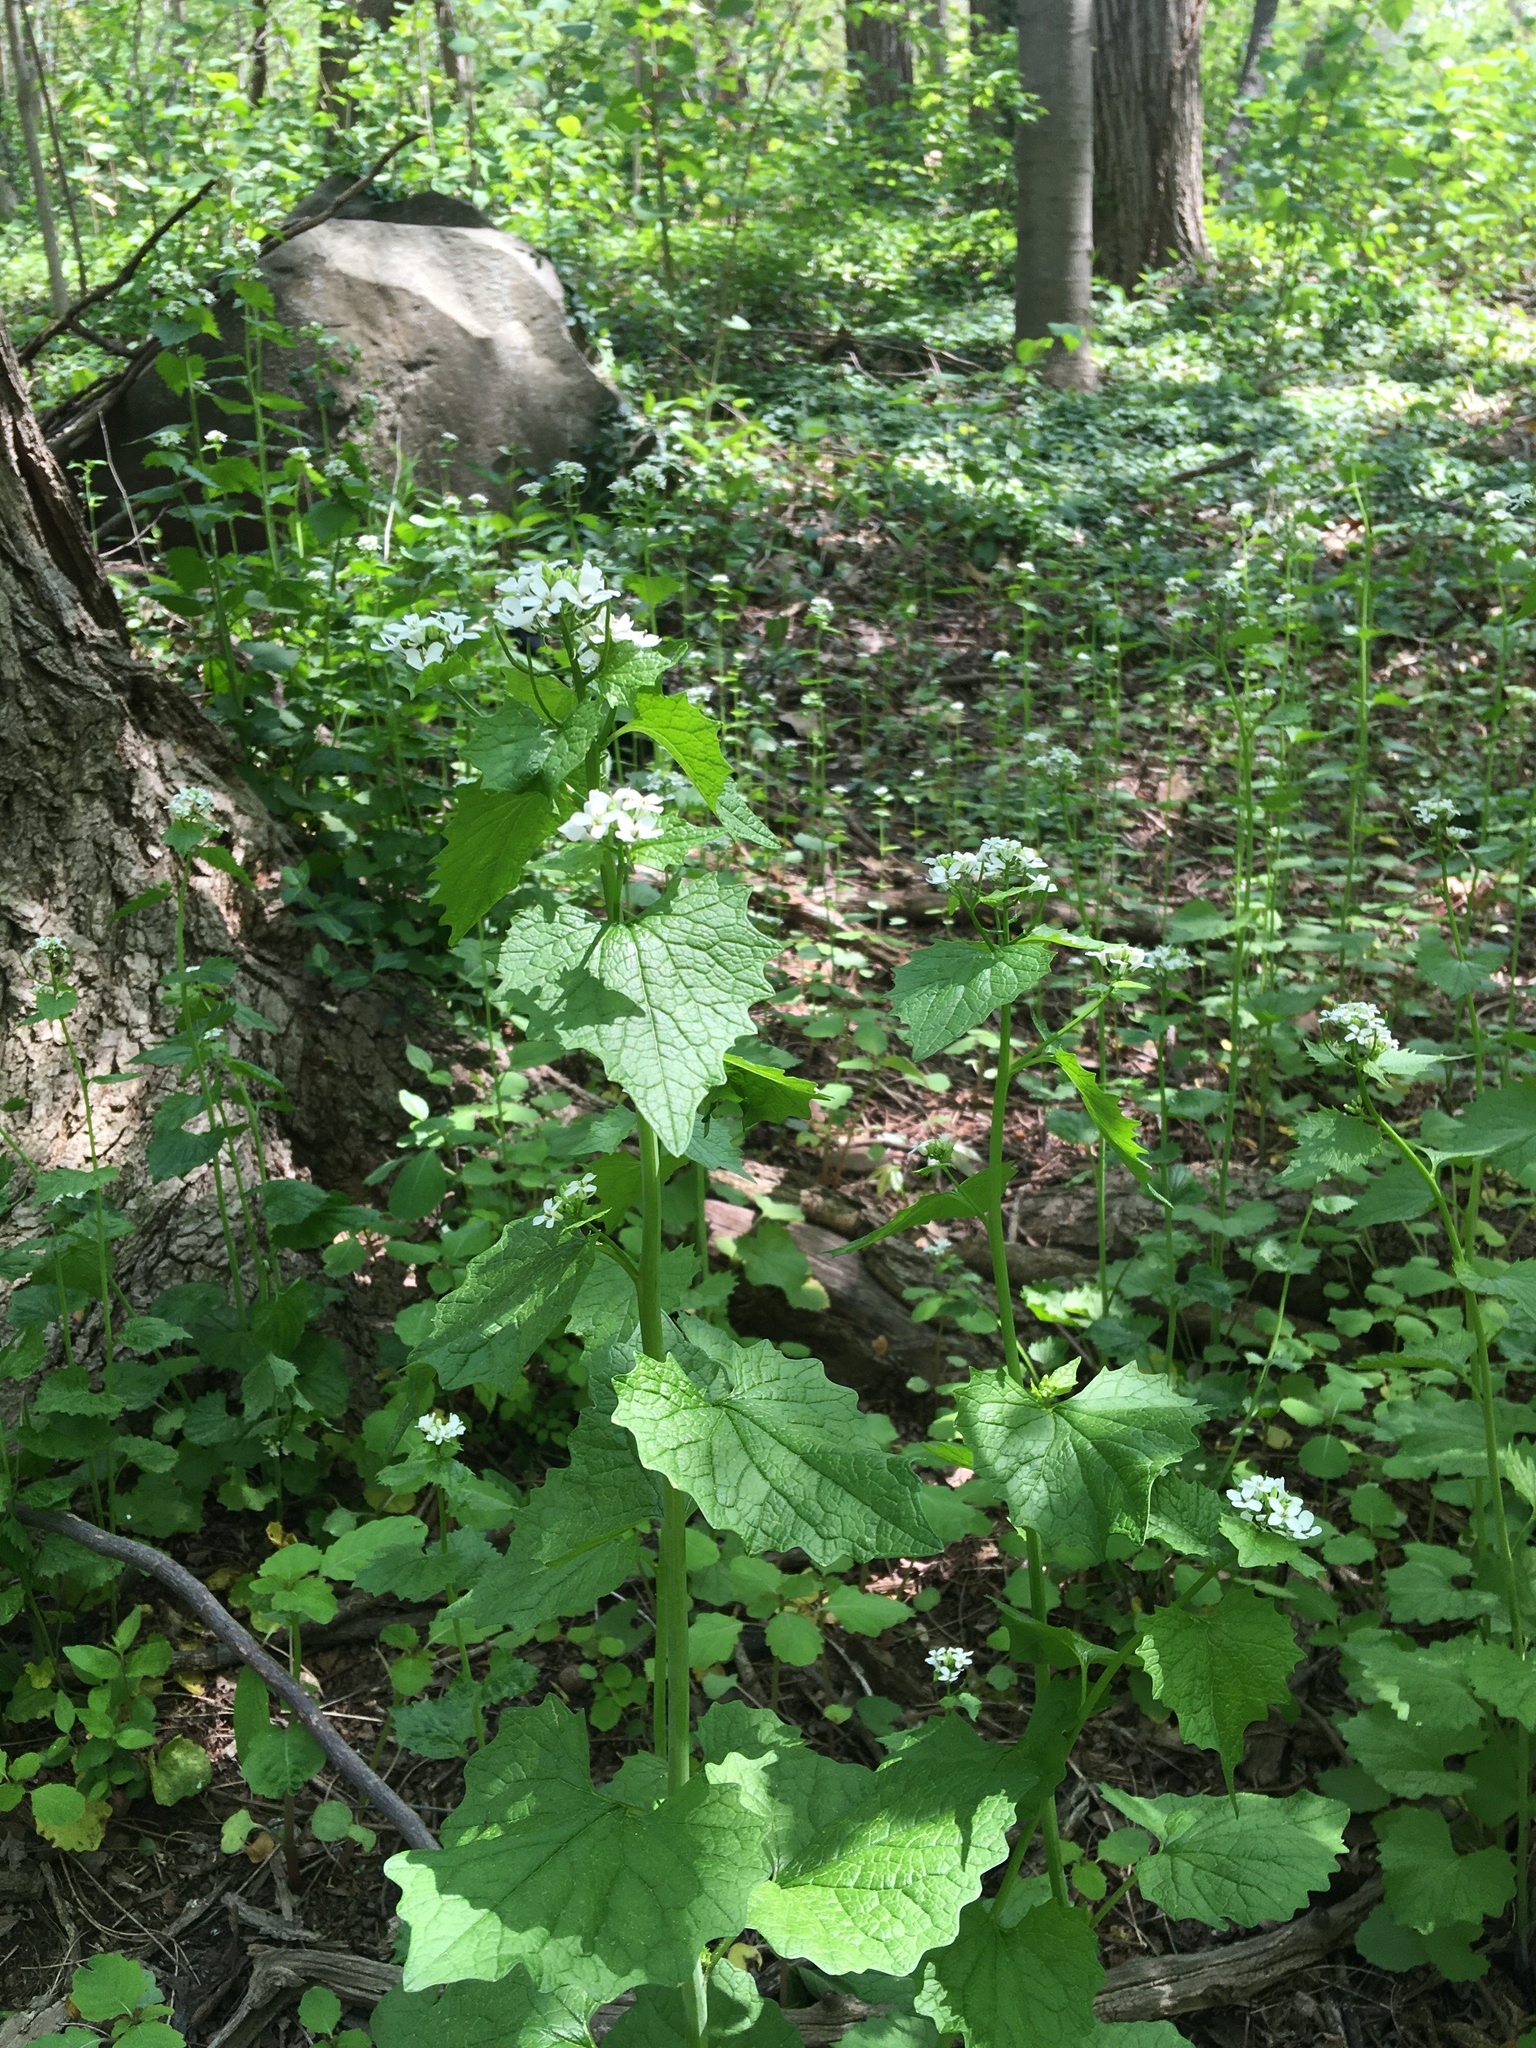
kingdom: Plantae
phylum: Tracheophyta
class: Magnoliopsida
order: Brassicales
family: Brassicaceae
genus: Alliaria
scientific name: Alliaria petiolata
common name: Garlic mustard
